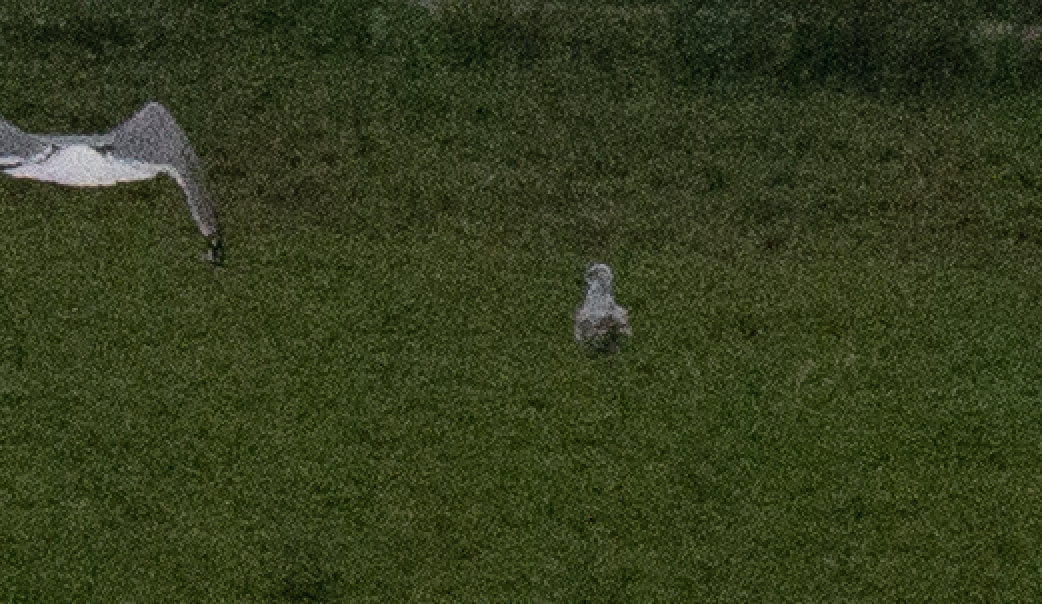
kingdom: Animalia
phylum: Chordata
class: Aves
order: Charadriiformes
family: Laridae
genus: Ichthyaetus
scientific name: Ichthyaetus melanocephalus
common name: Mediterranean gull
